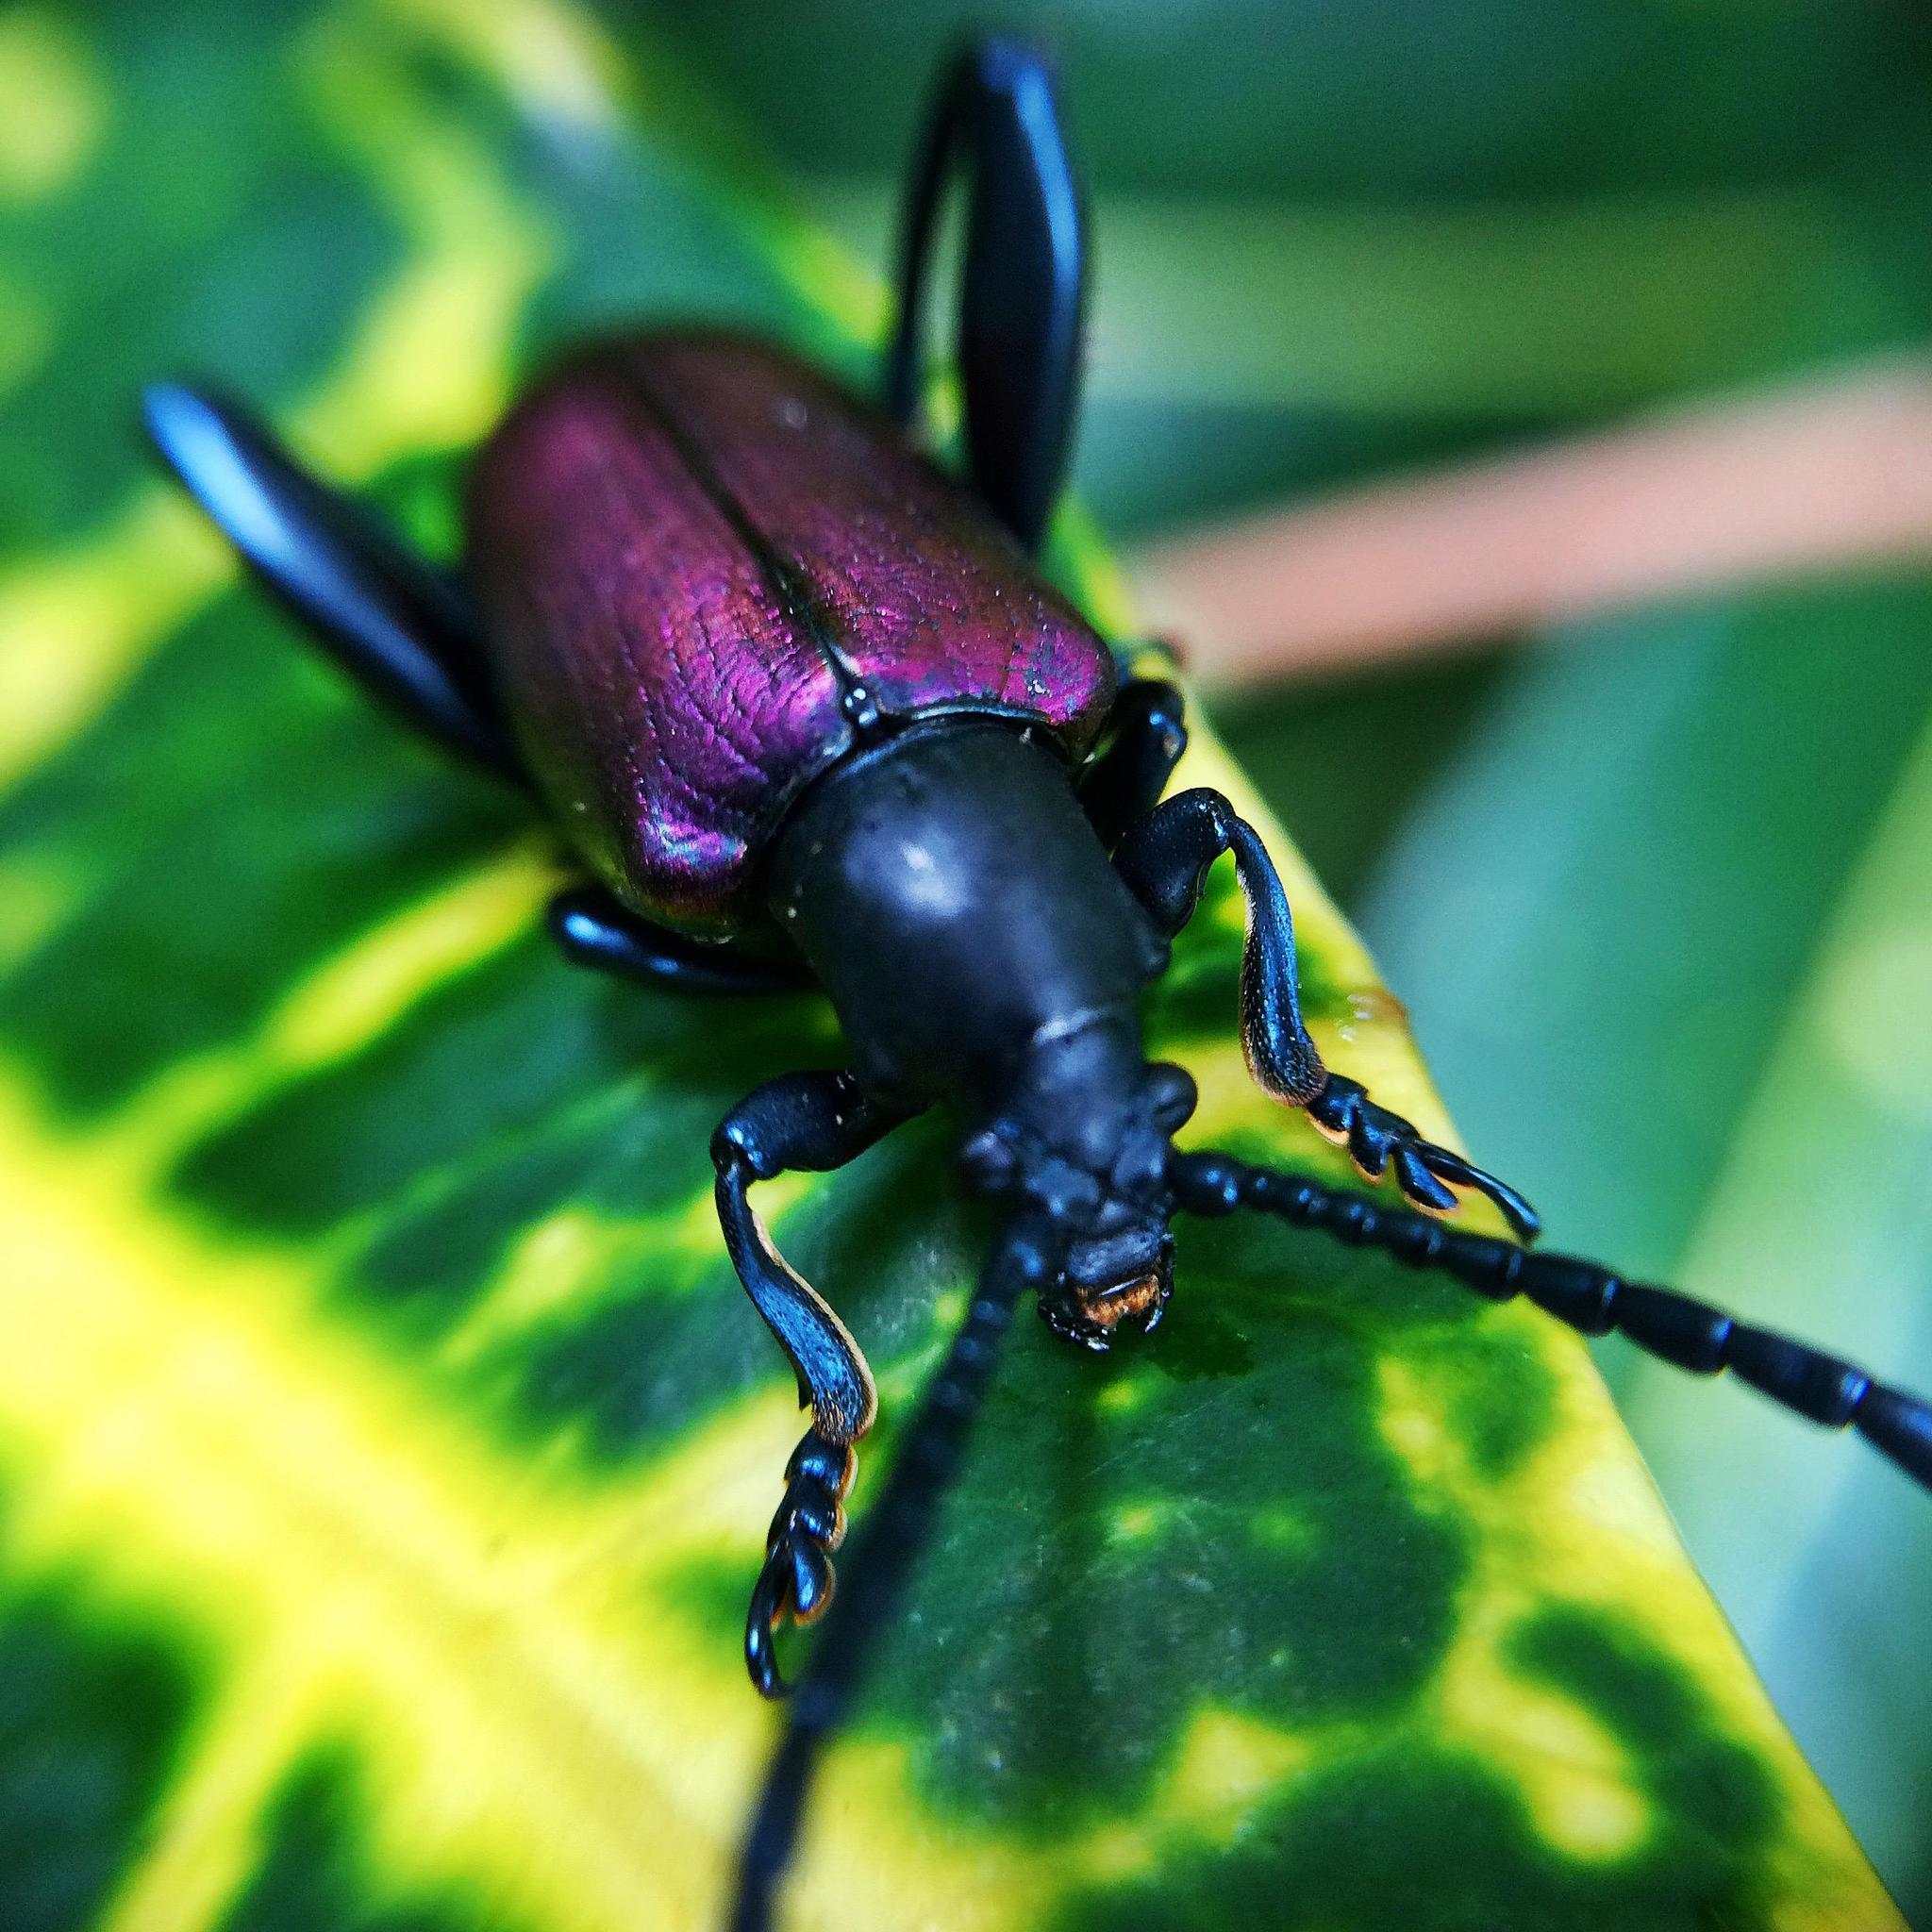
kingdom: Animalia
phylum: Arthropoda
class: Insecta
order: Coleoptera
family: Chrysomelidae
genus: Sagra
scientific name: Sagra
